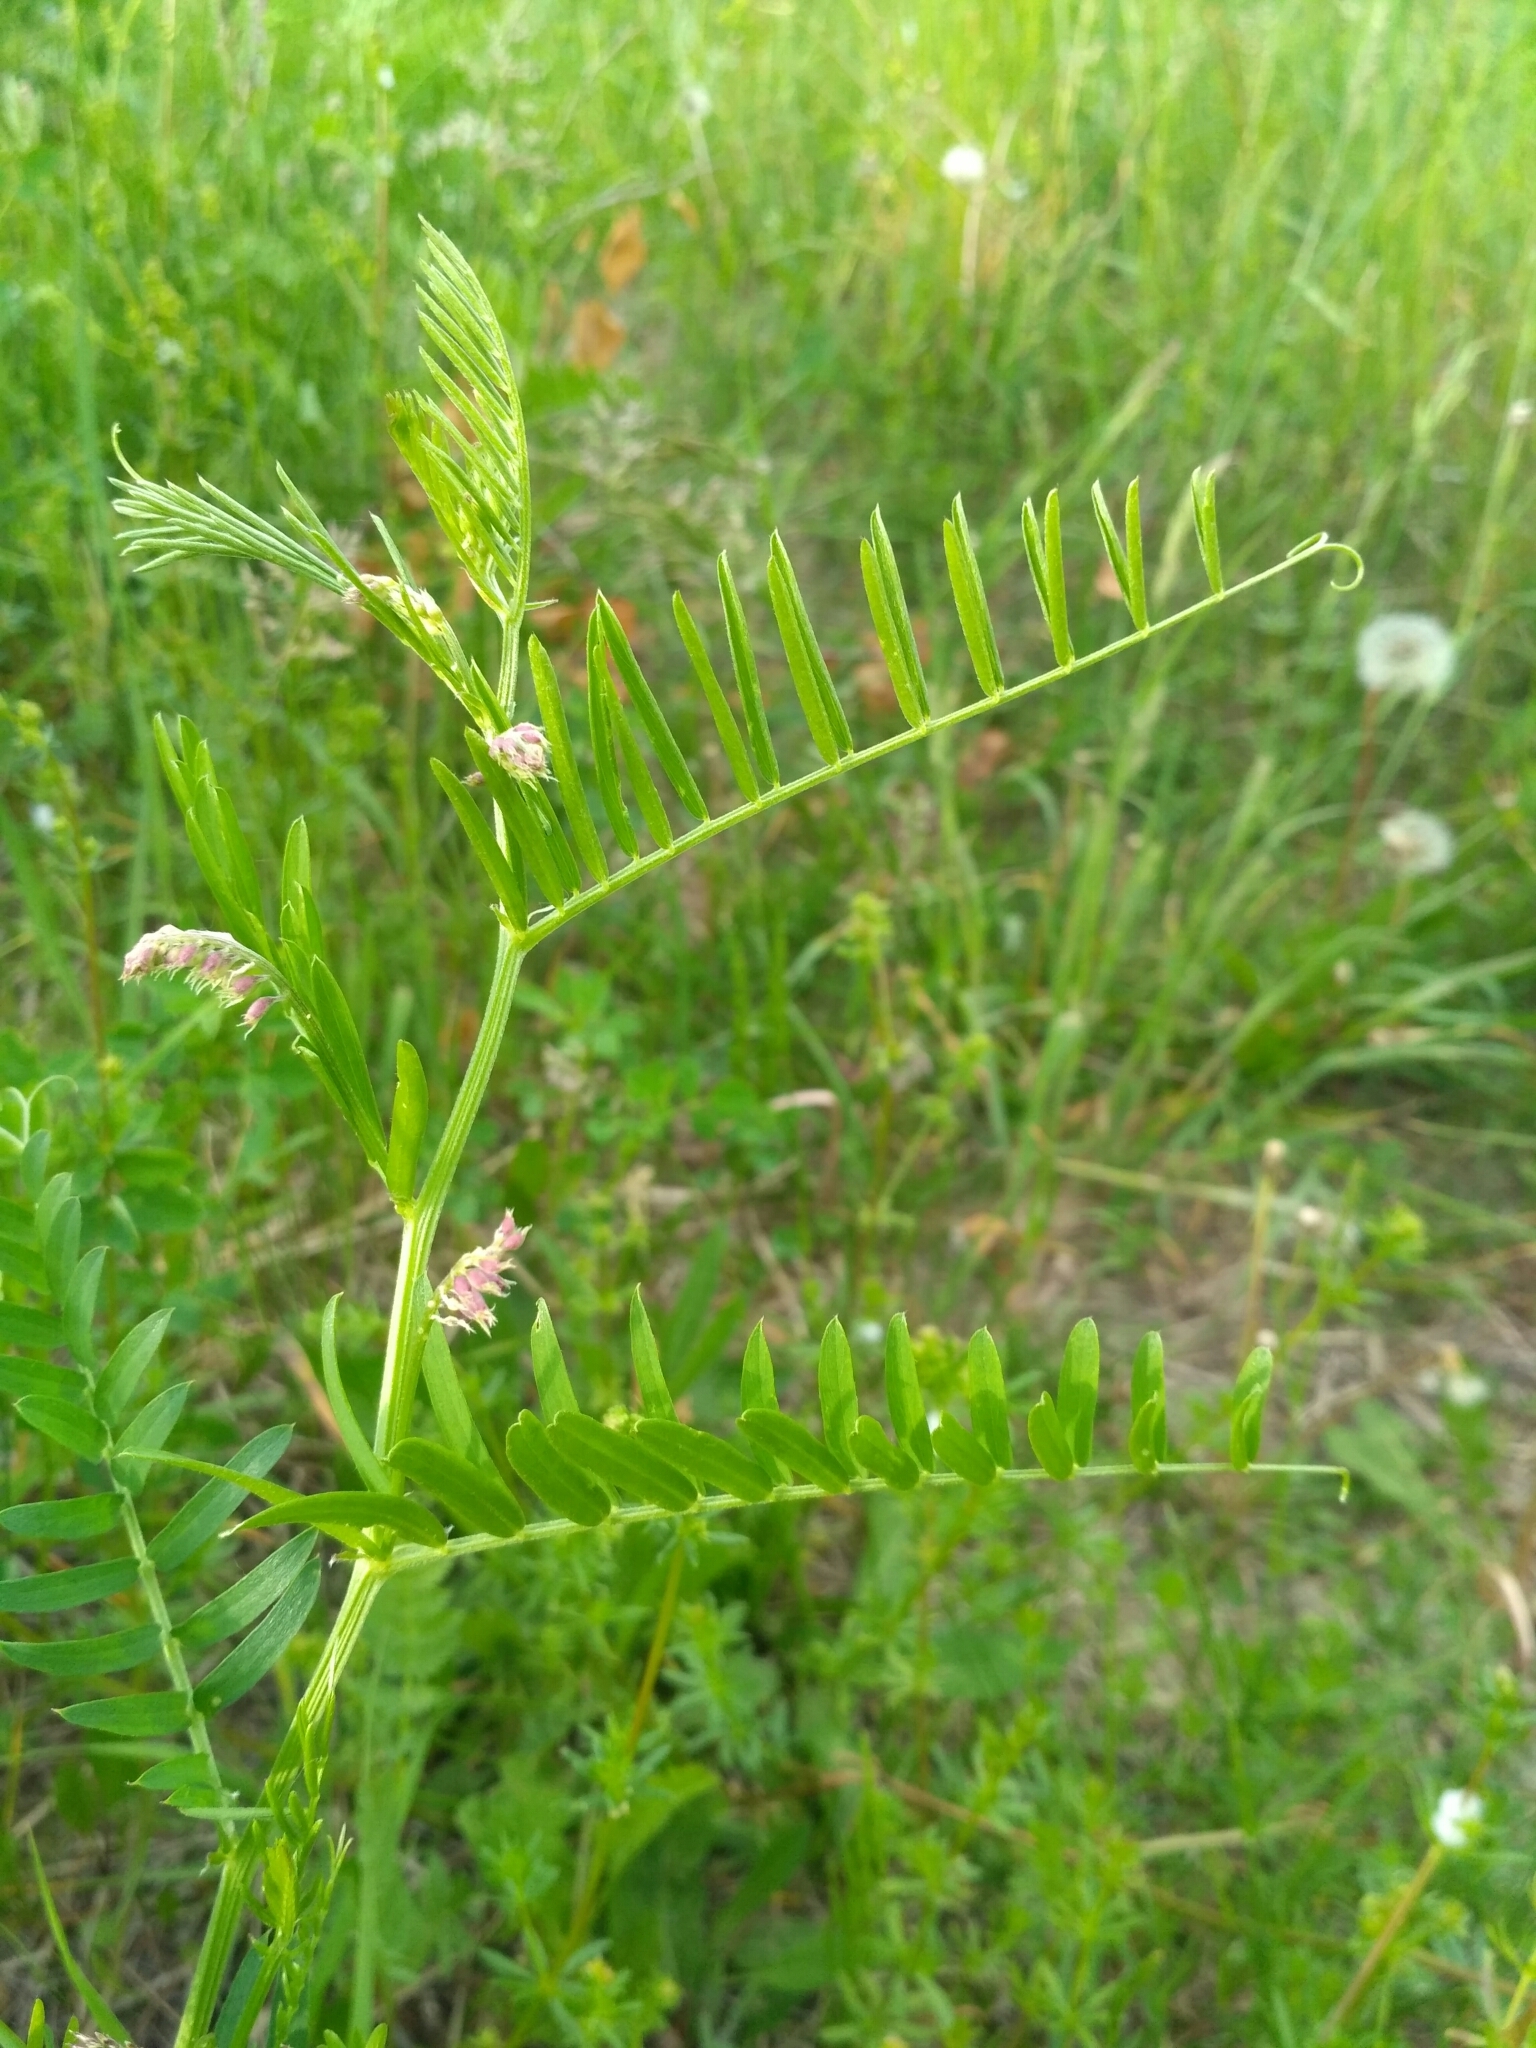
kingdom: Plantae
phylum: Tracheophyta
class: Magnoliopsida
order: Fabales
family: Fabaceae
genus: Vicia
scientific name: Vicia tenuifolia
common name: Fine-leaved vetch
